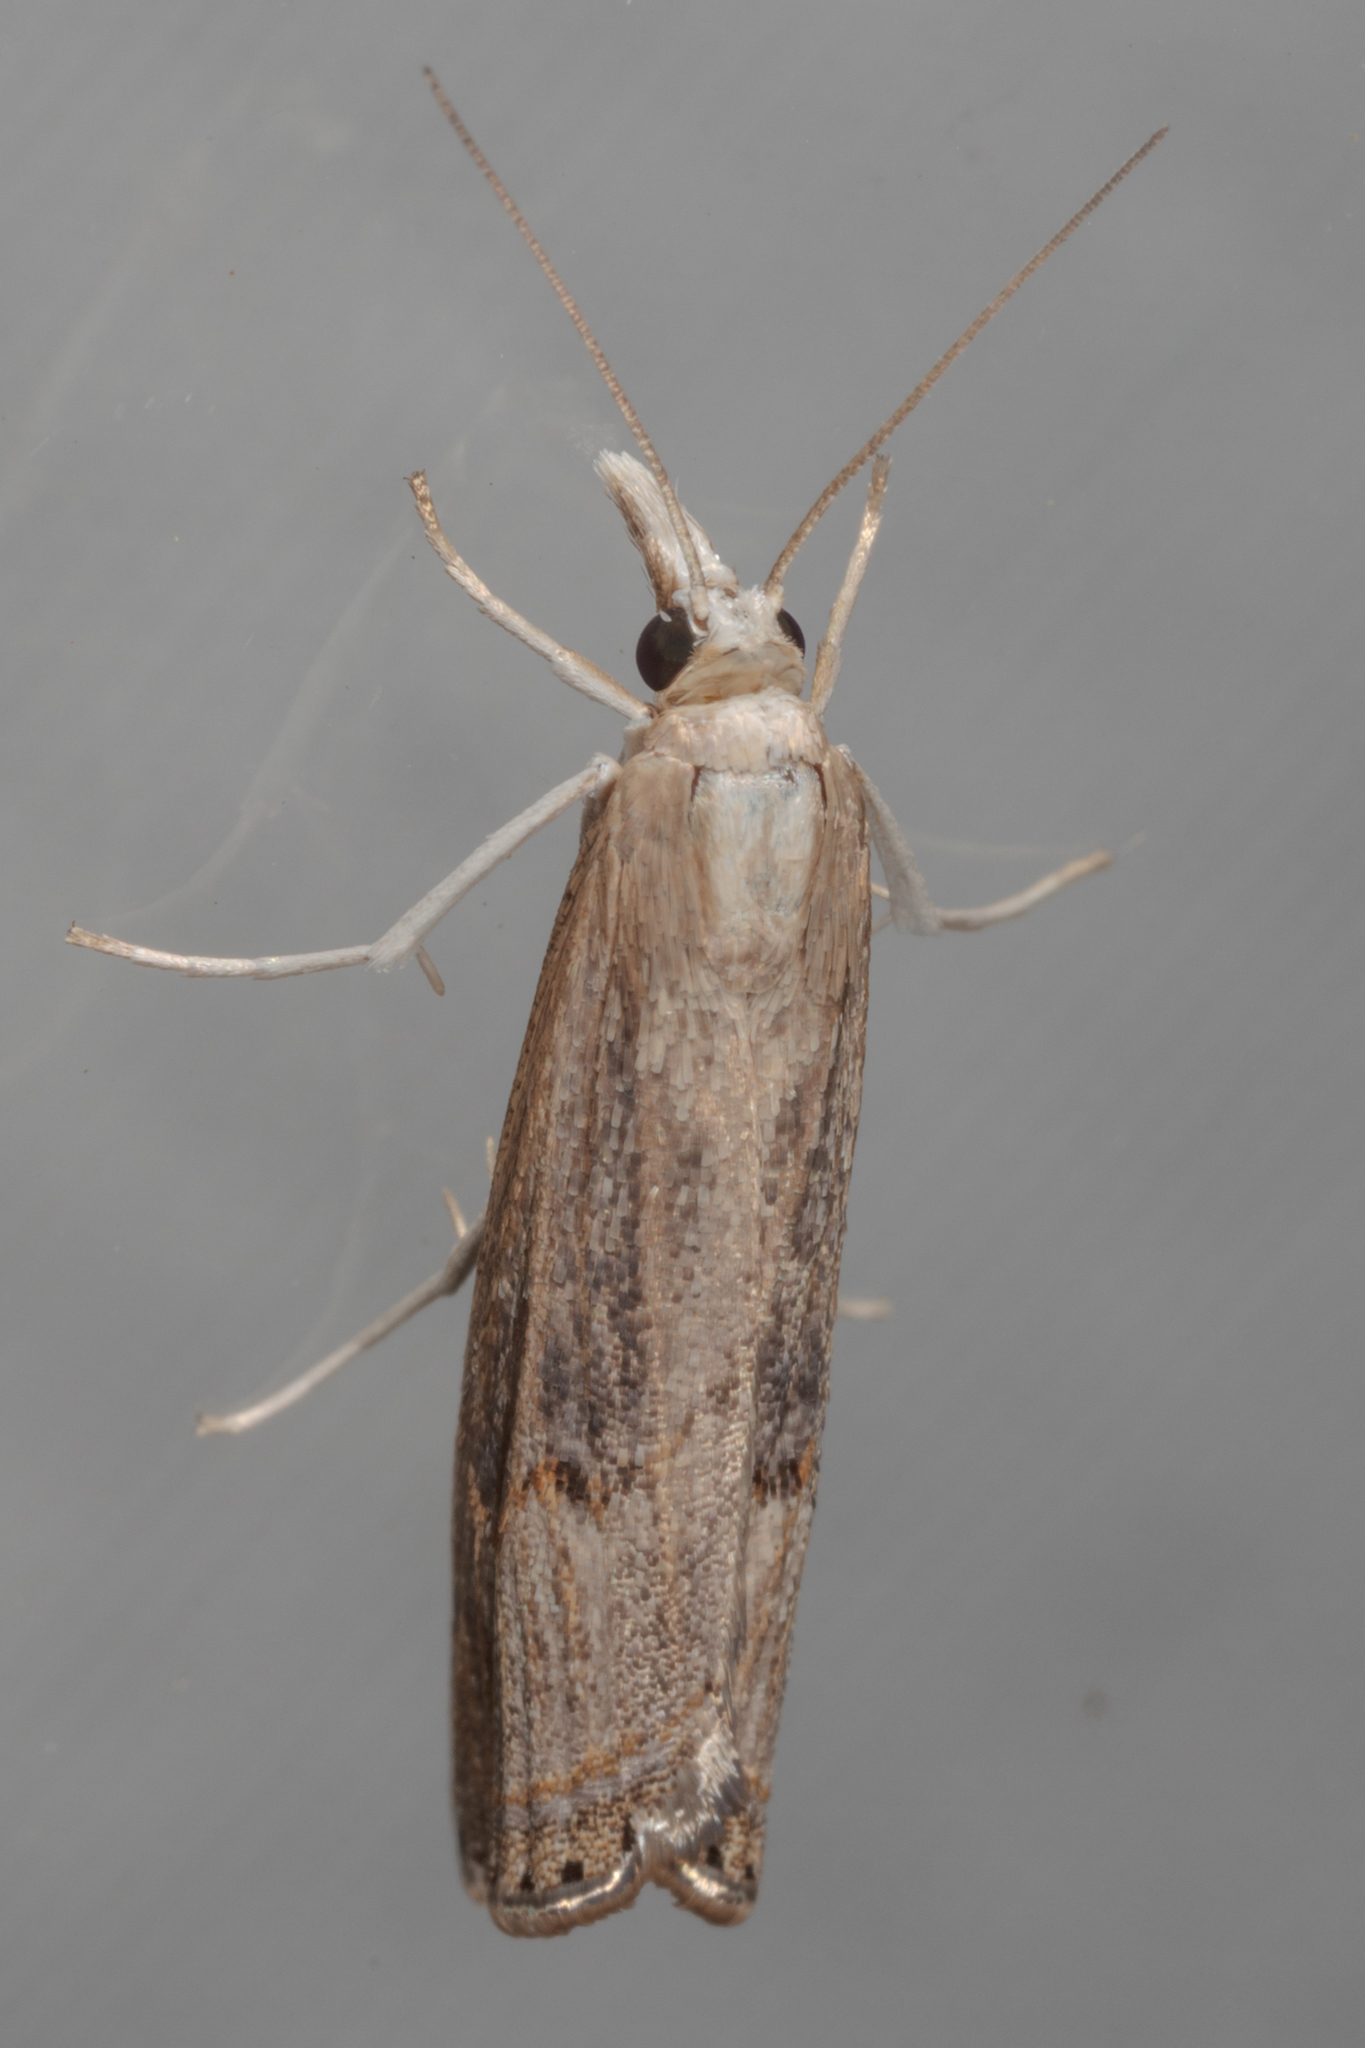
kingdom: Animalia
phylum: Arthropoda
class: Insecta
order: Lepidoptera
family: Crambidae
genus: Parapediasia
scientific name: Parapediasia teterellus
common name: Bluegrass webworm moth
